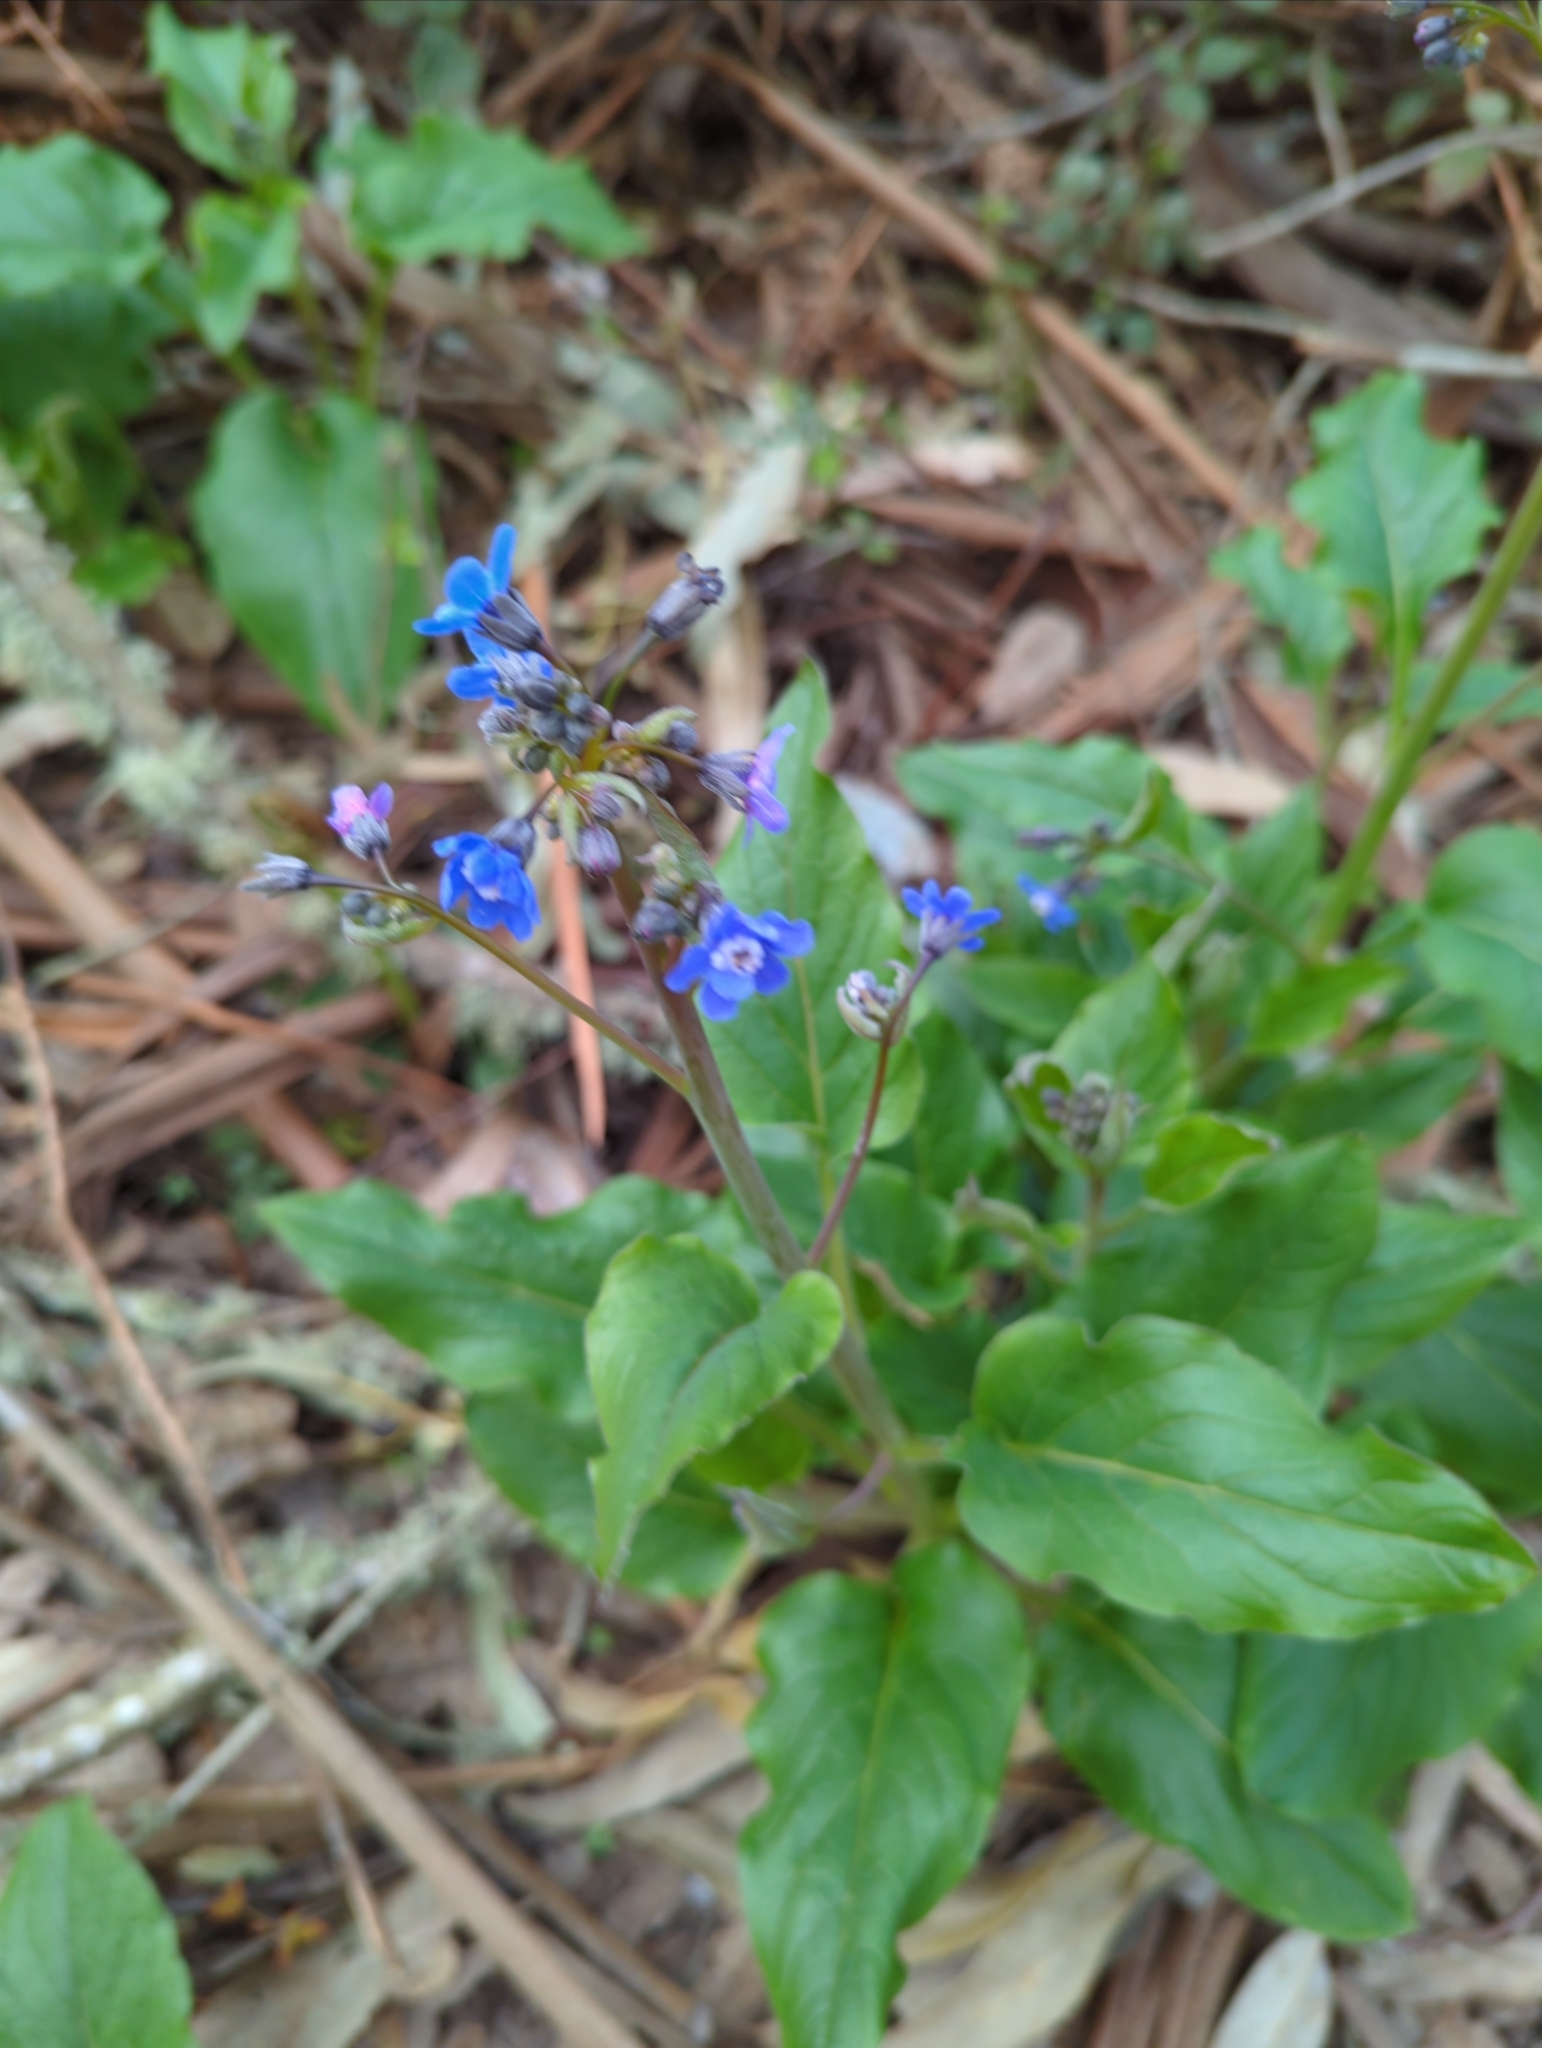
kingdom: Plantae
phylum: Tracheophyta
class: Magnoliopsida
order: Boraginales
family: Boraginaceae
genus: Adelinia
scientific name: Adelinia grande
